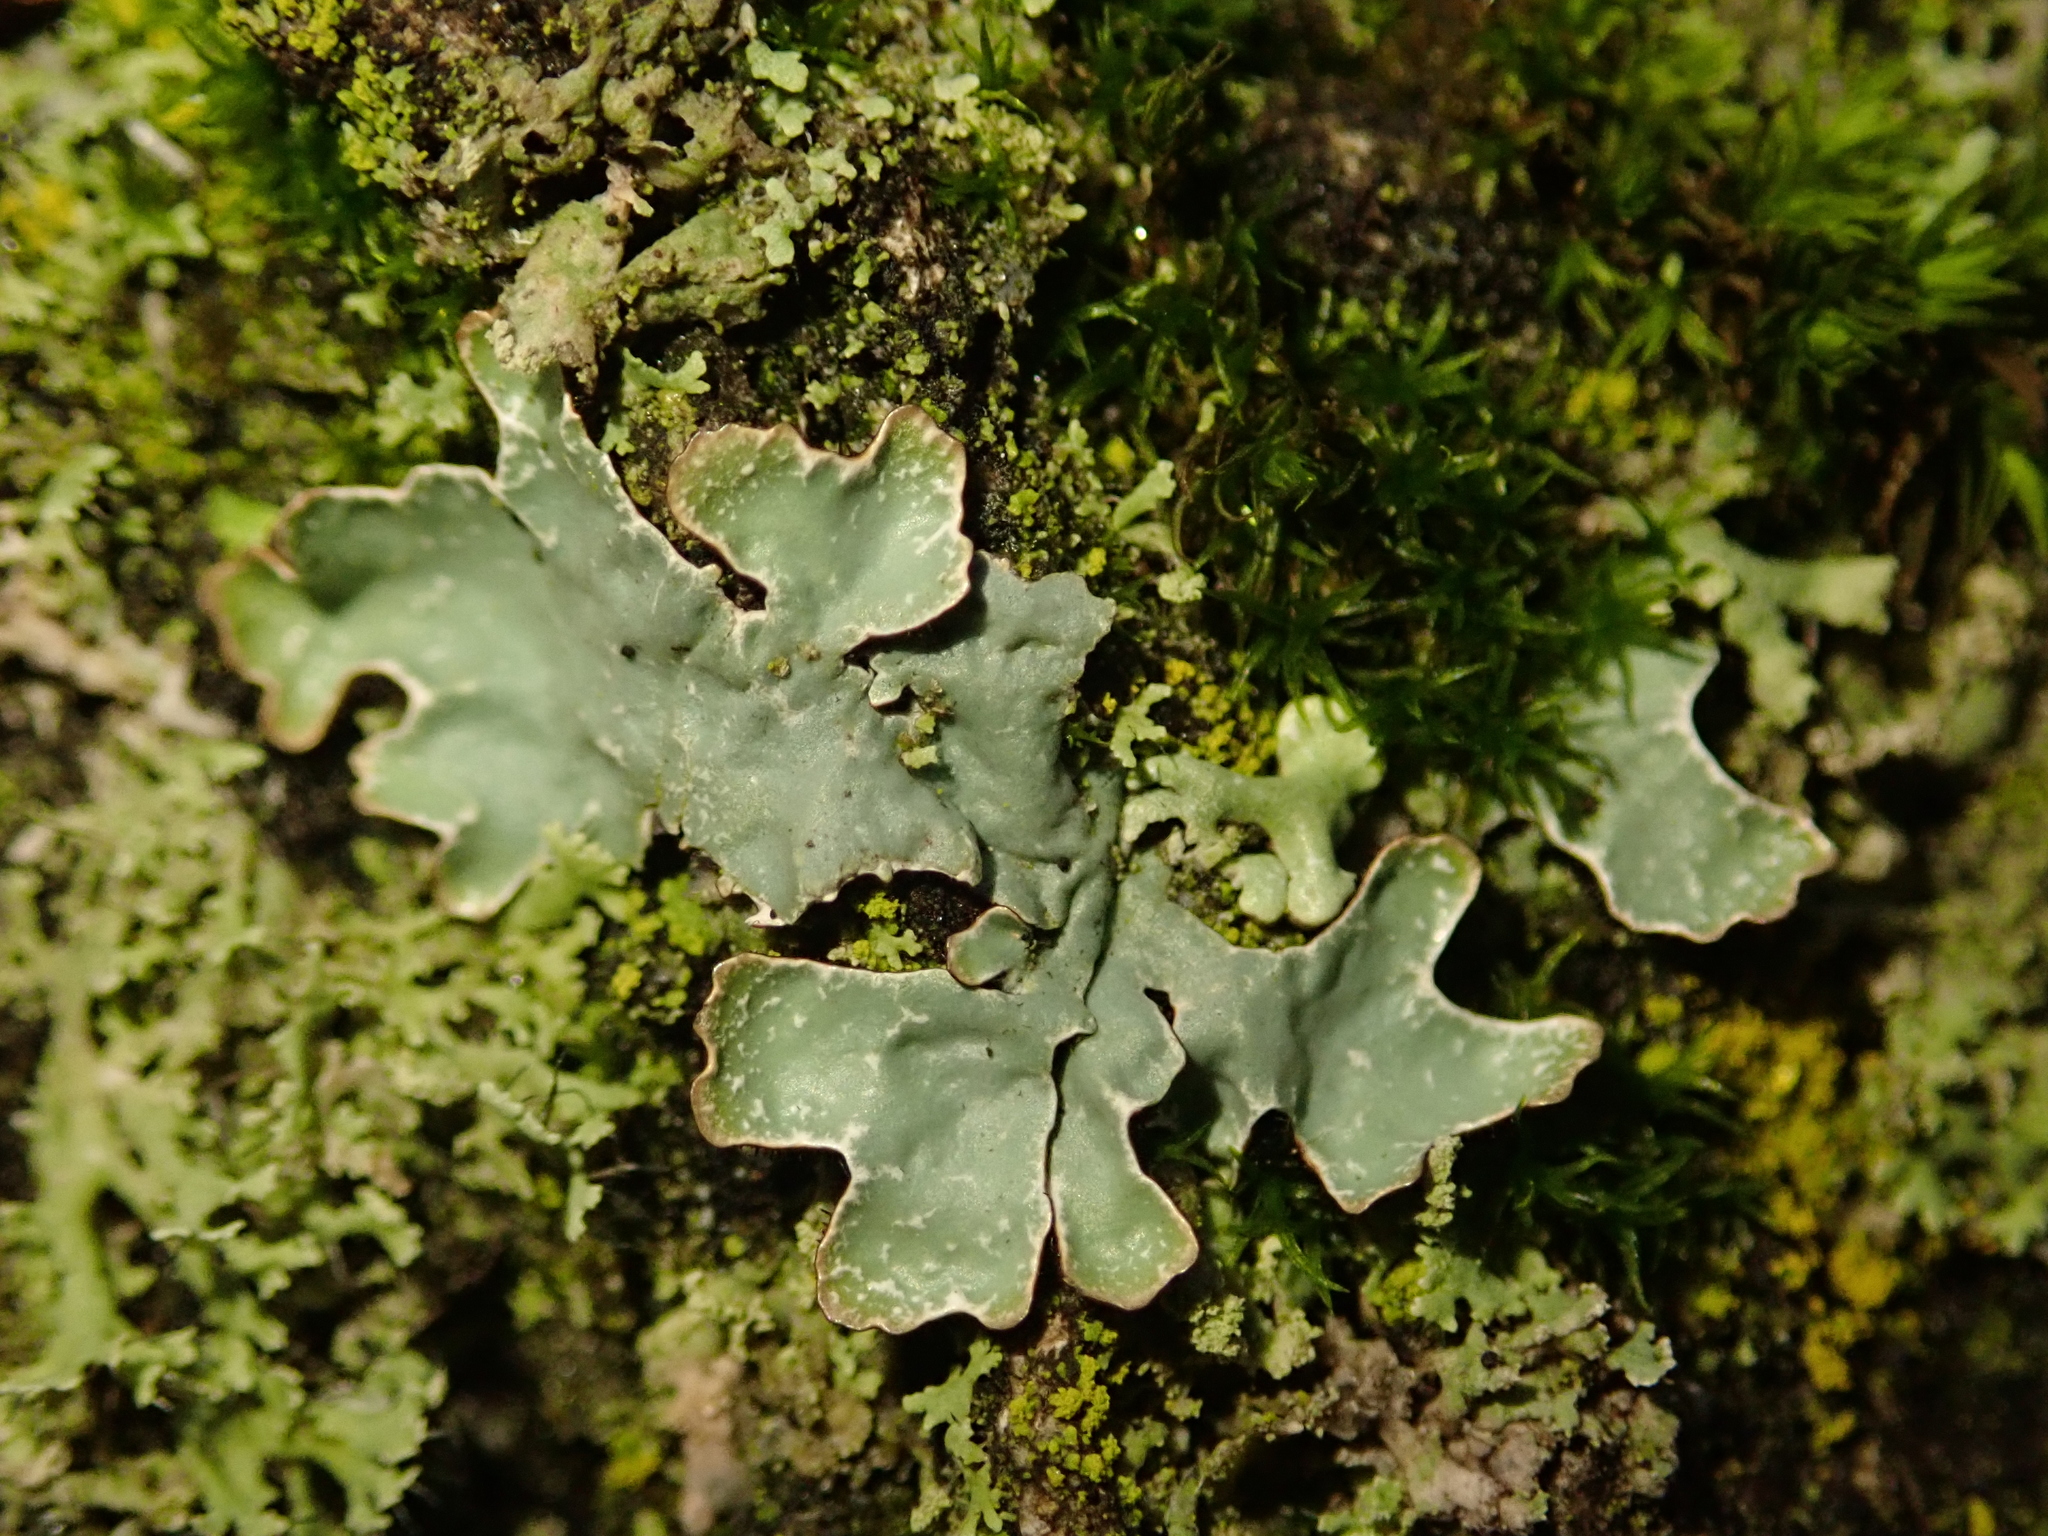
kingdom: Fungi
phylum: Ascomycota
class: Lecanoromycetes
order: Lecanorales
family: Parmeliaceae
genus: Parmelia
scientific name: Parmelia sulcata
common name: Netted shield lichen
